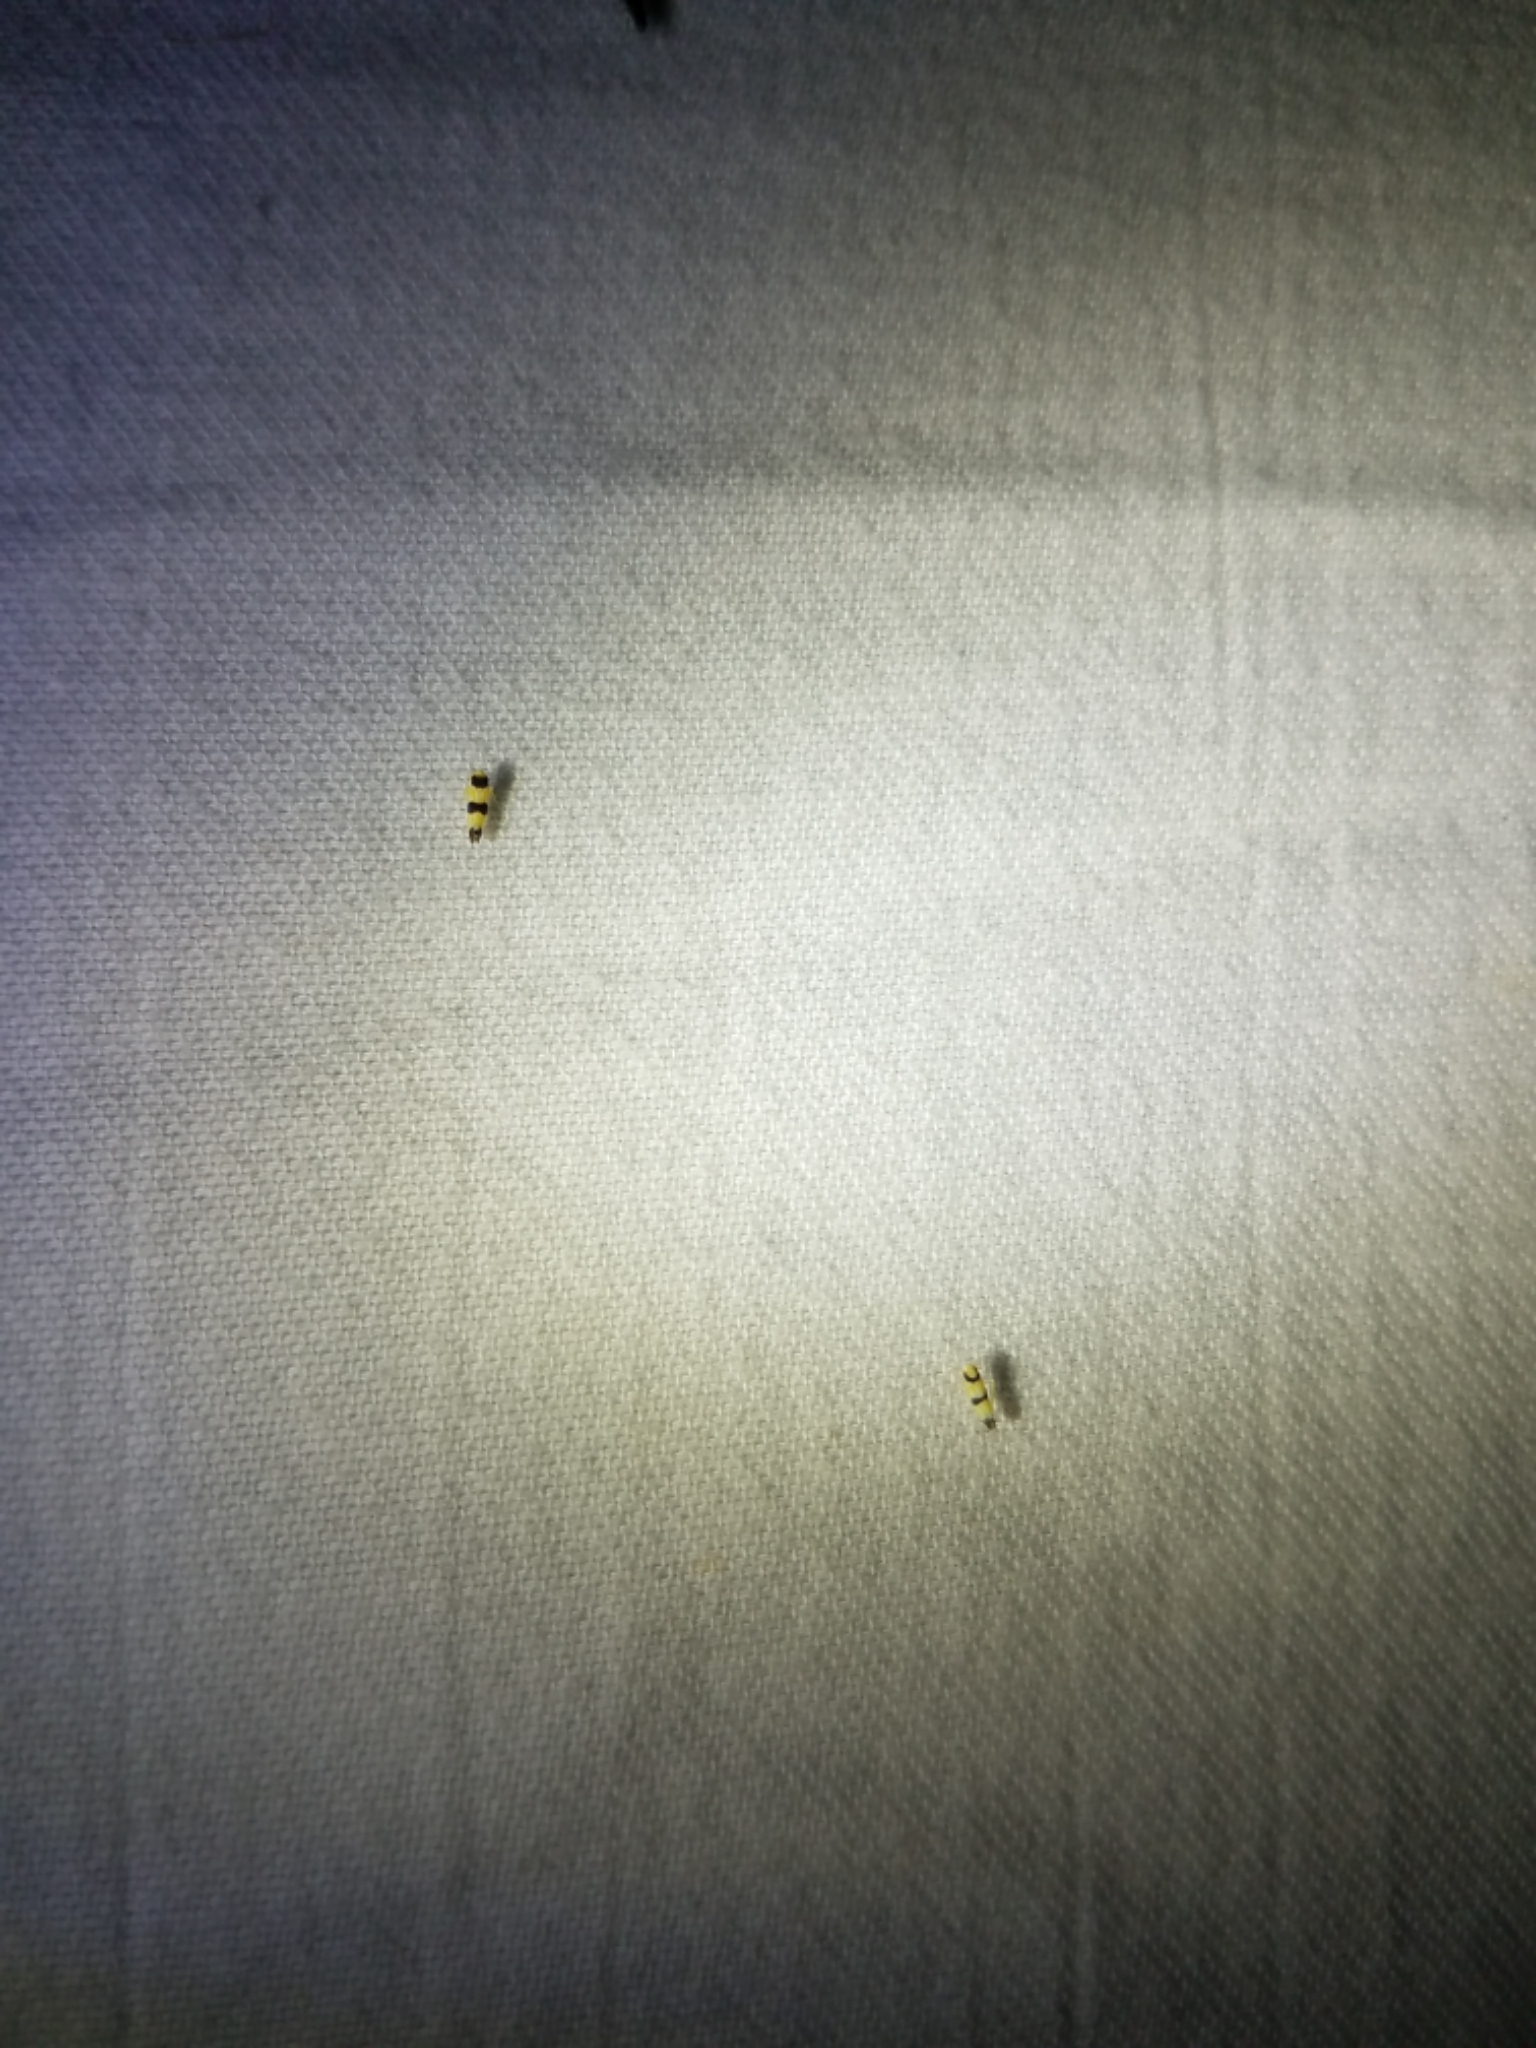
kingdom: Animalia
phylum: Arthropoda
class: Insecta
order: Hemiptera
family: Cicadellidae
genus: Erythroneura
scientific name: Erythroneura tricincta
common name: The threebanded grape leafhopper
